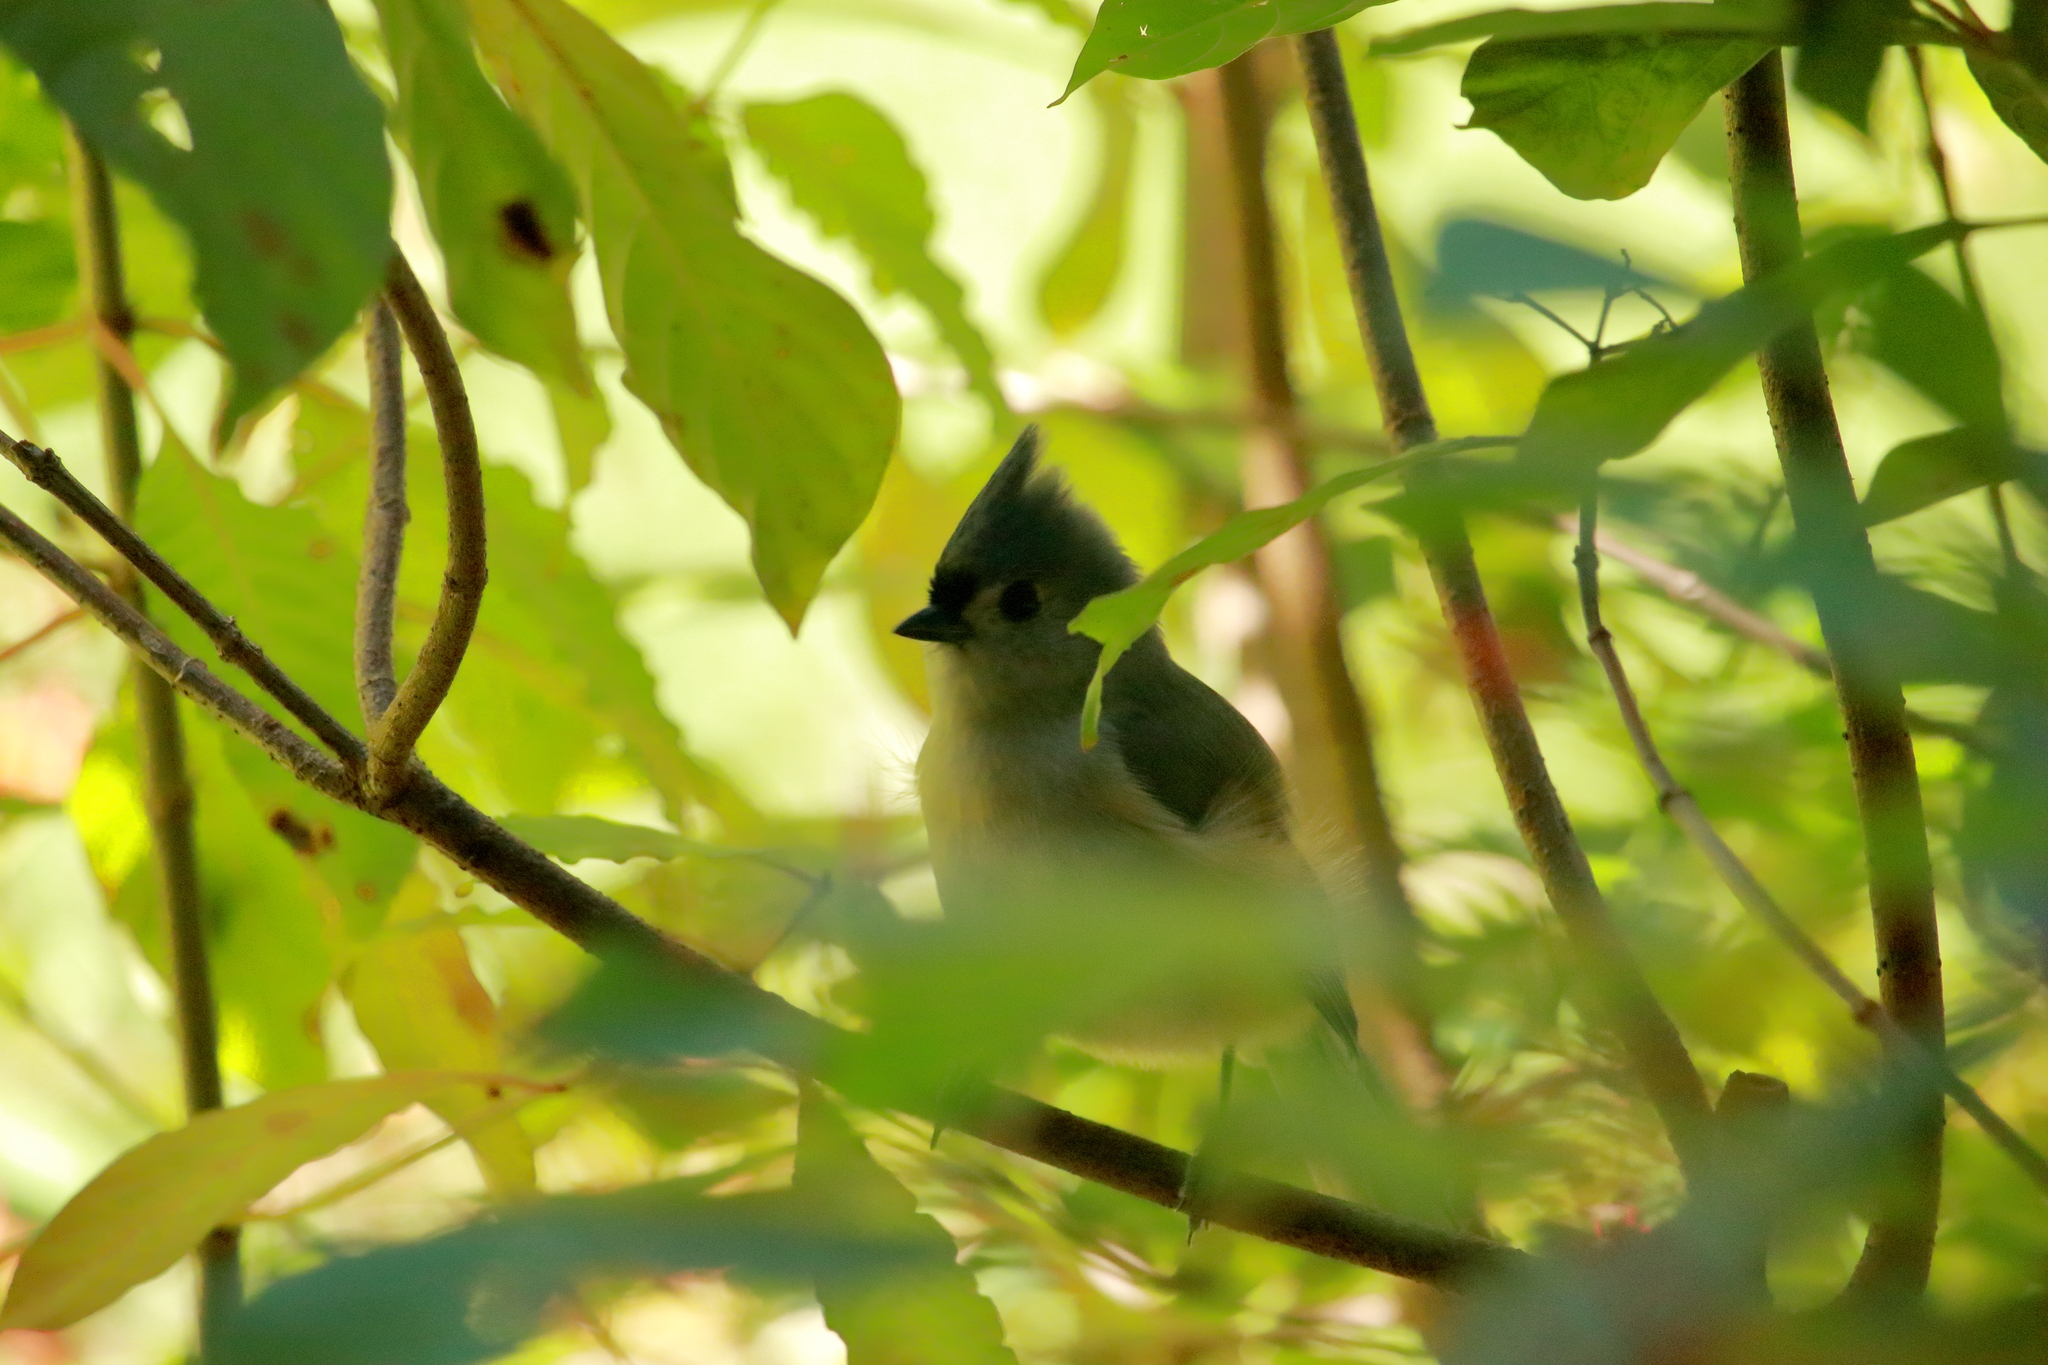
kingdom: Animalia
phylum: Chordata
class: Aves
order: Passeriformes
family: Paridae
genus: Baeolophus
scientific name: Baeolophus bicolor
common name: Tufted titmouse
